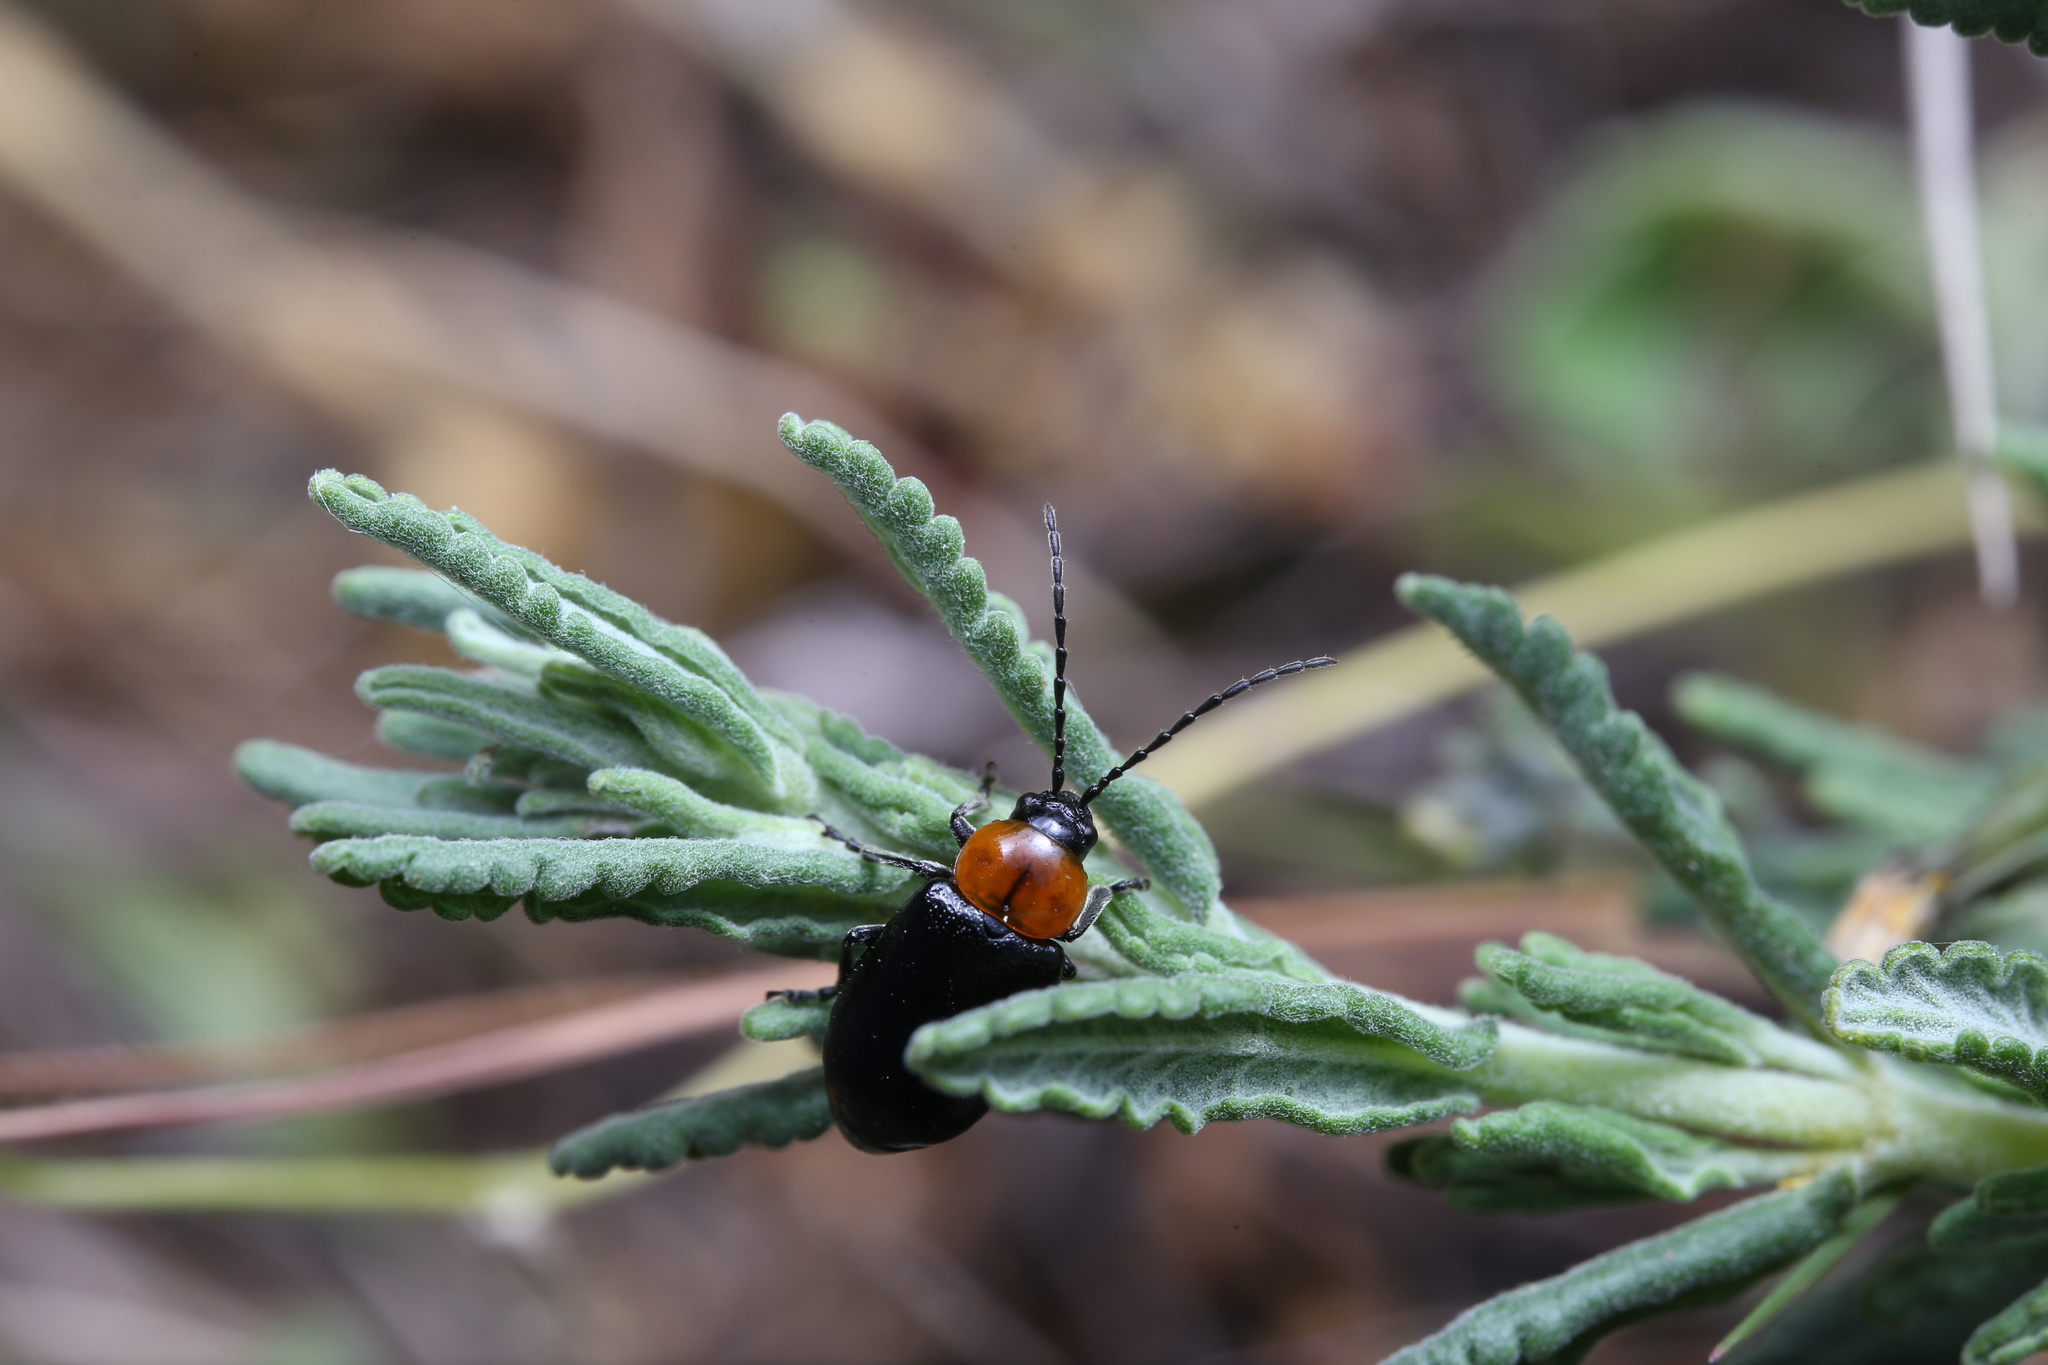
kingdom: Animalia
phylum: Arthropoda
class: Insecta
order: Coleoptera
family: Chrysomelidae
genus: Exosoma
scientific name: Exosoma gaudionis
